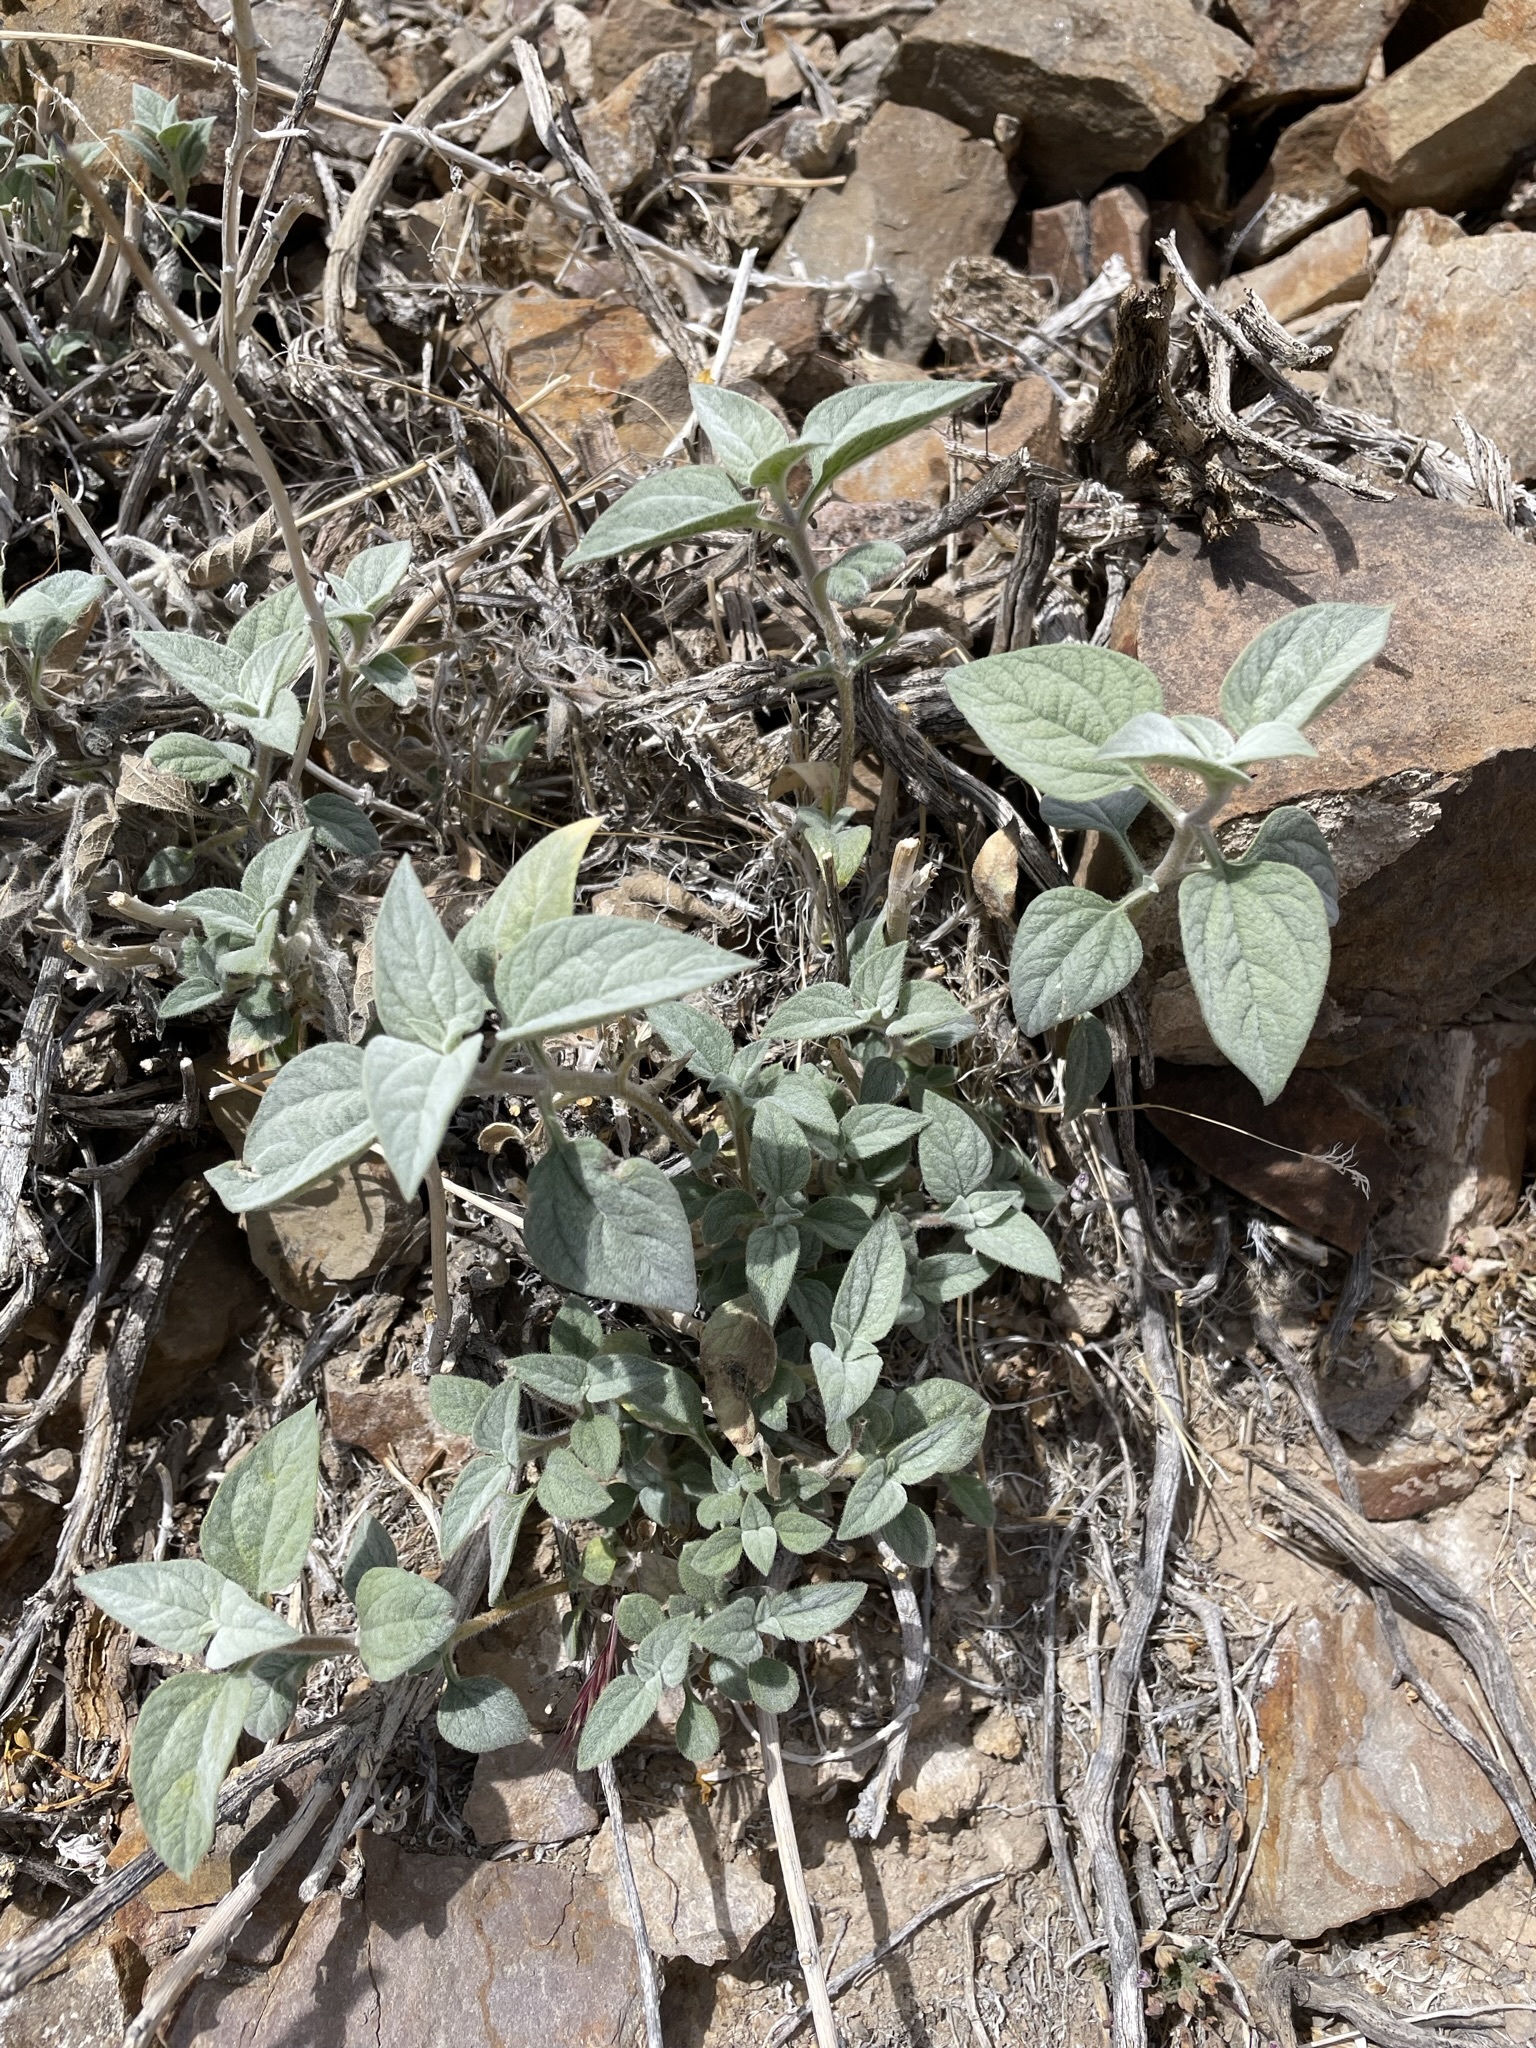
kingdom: Plantae
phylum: Tracheophyta
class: Magnoliopsida
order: Asterales
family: Asteraceae
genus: Bahiopsis
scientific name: Bahiopsis reticulata
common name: Death valley goldeneye
